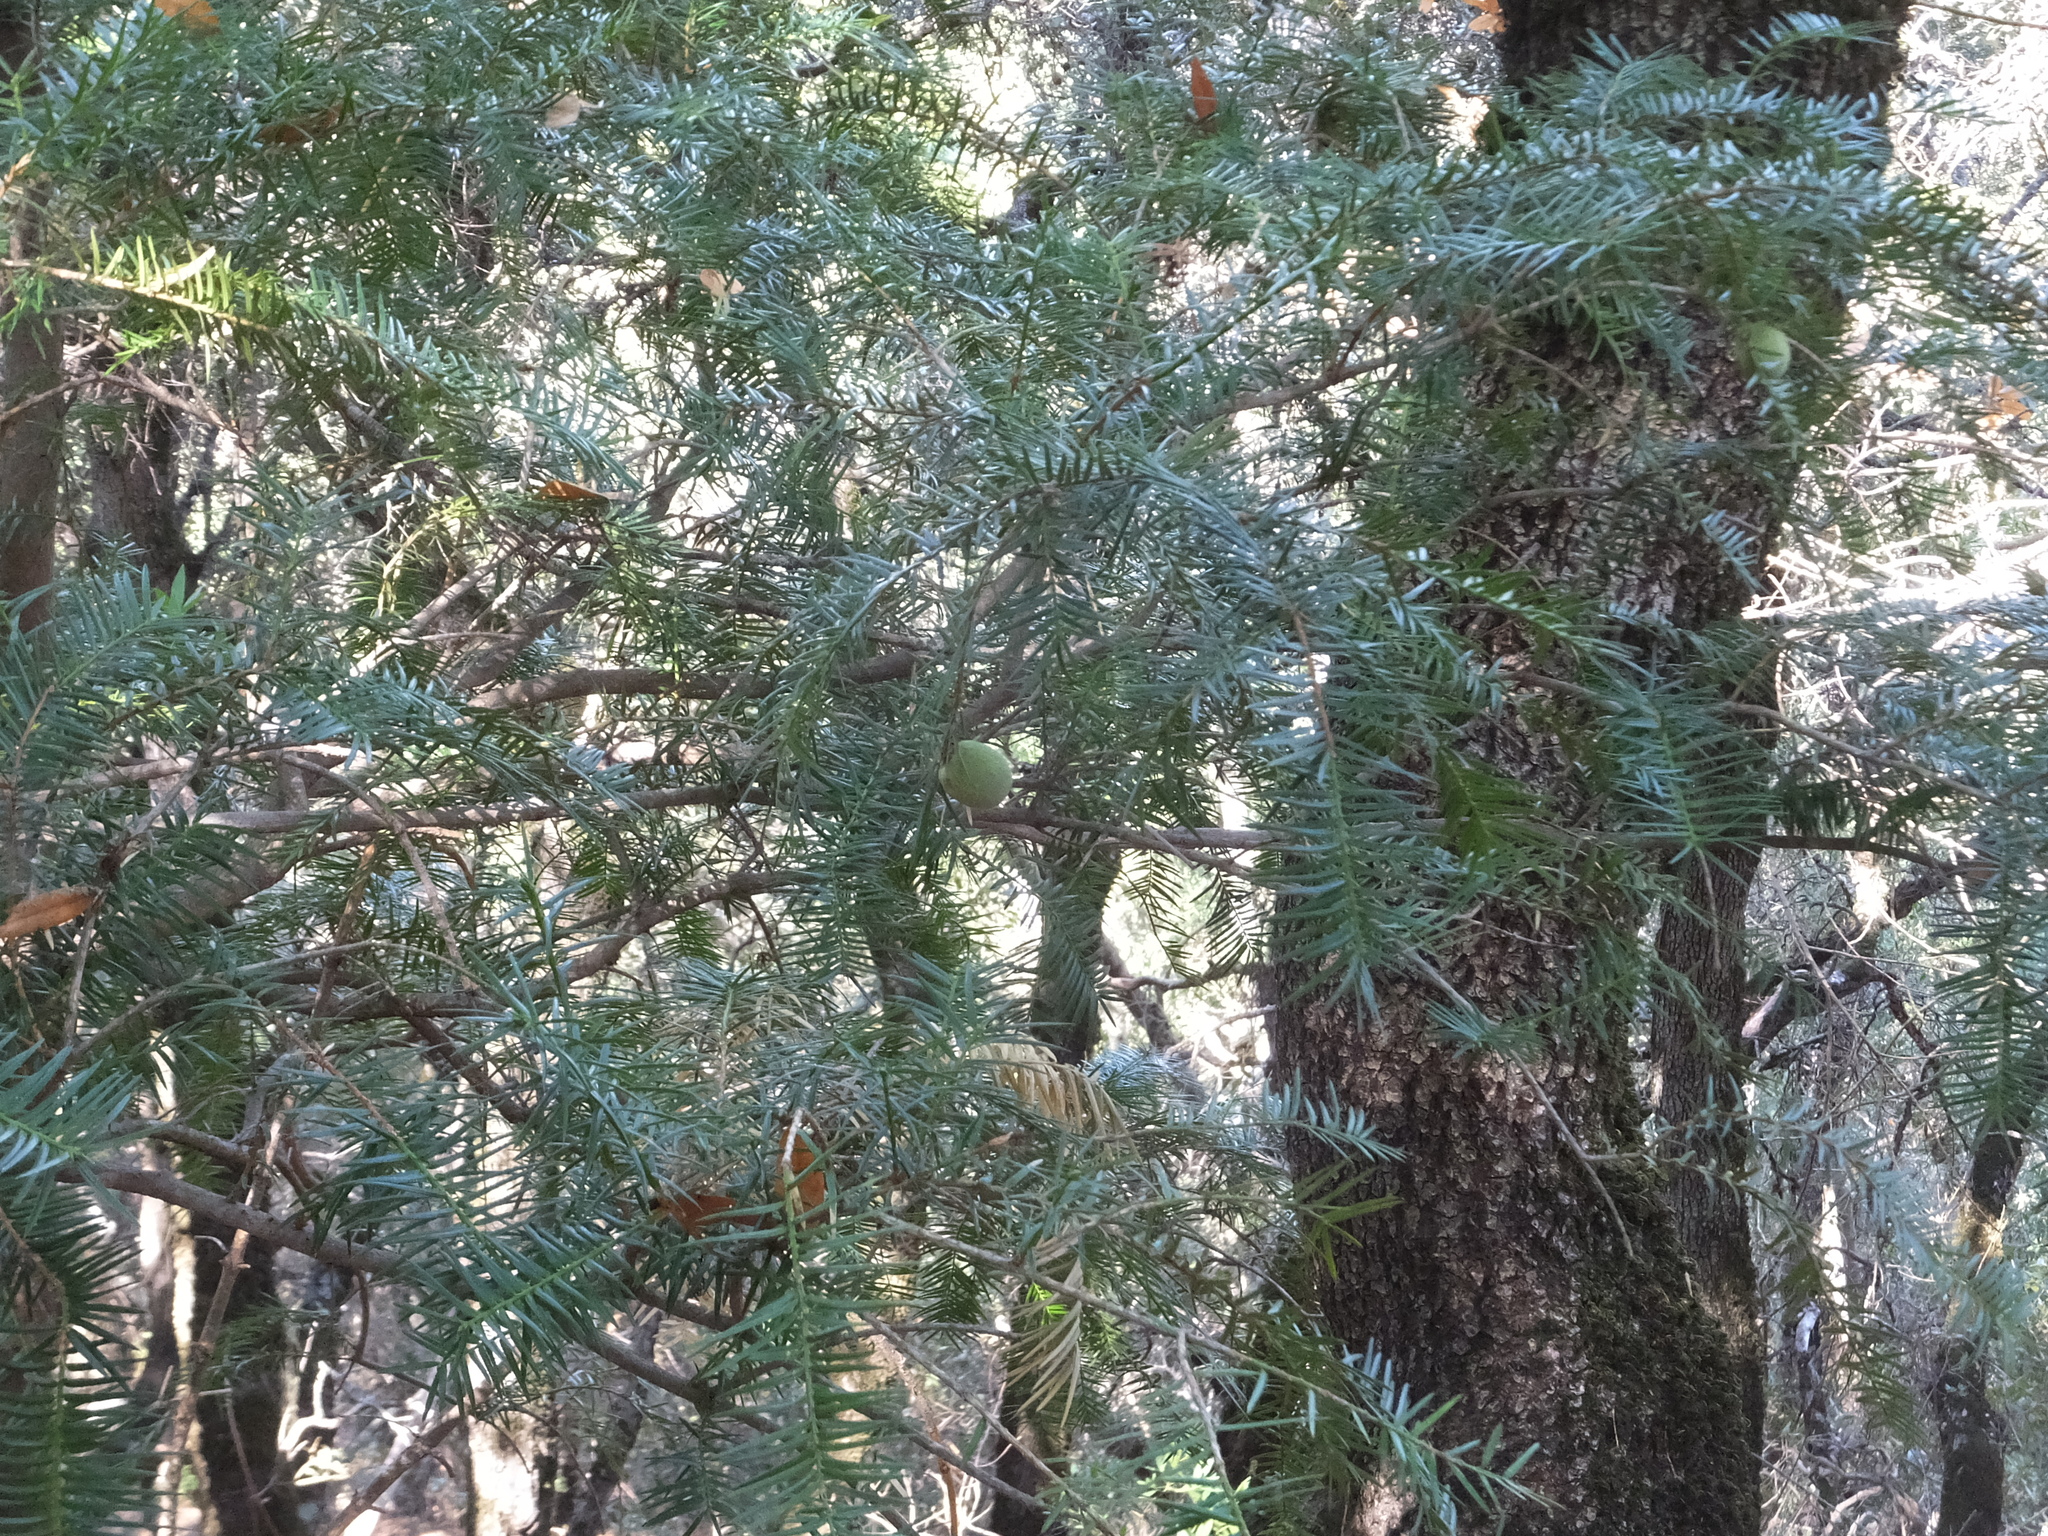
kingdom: Plantae
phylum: Tracheophyta
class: Pinopsida
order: Pinales
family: Taxaceae
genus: Torreya
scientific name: Torreya californica
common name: California torreya
